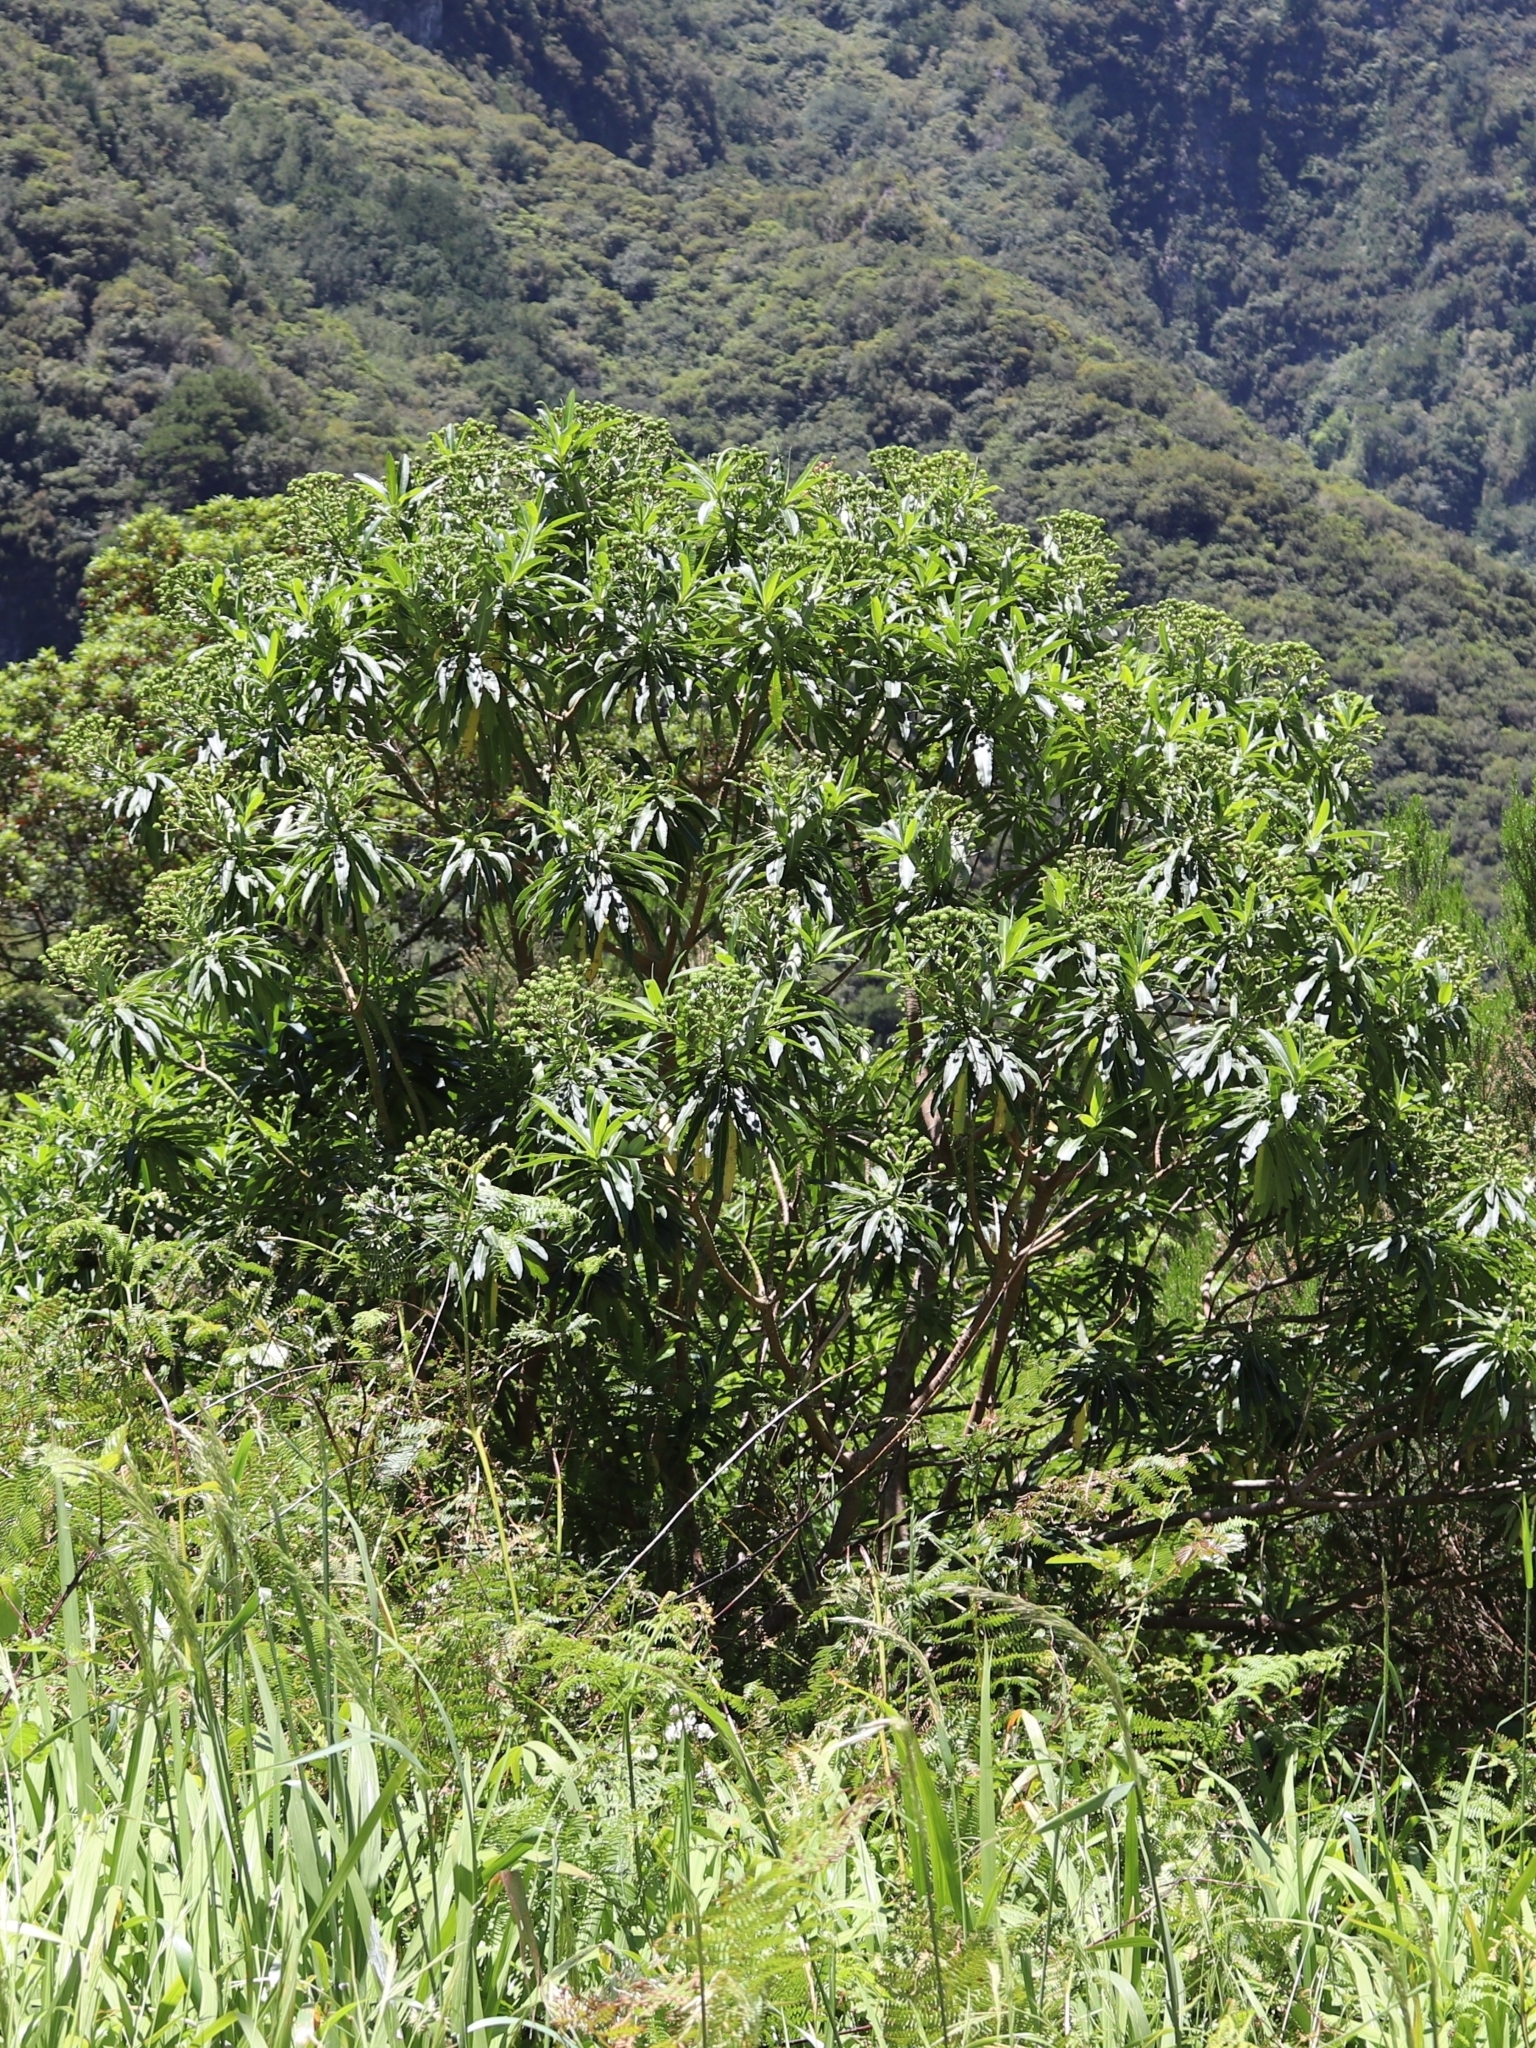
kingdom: Plantae
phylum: Tracheophyta
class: Magnoliopsida
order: Malpighiales
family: Euphorbiaceae
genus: Euphorbia
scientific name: Euphorbia mellifera
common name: Canary spurge
